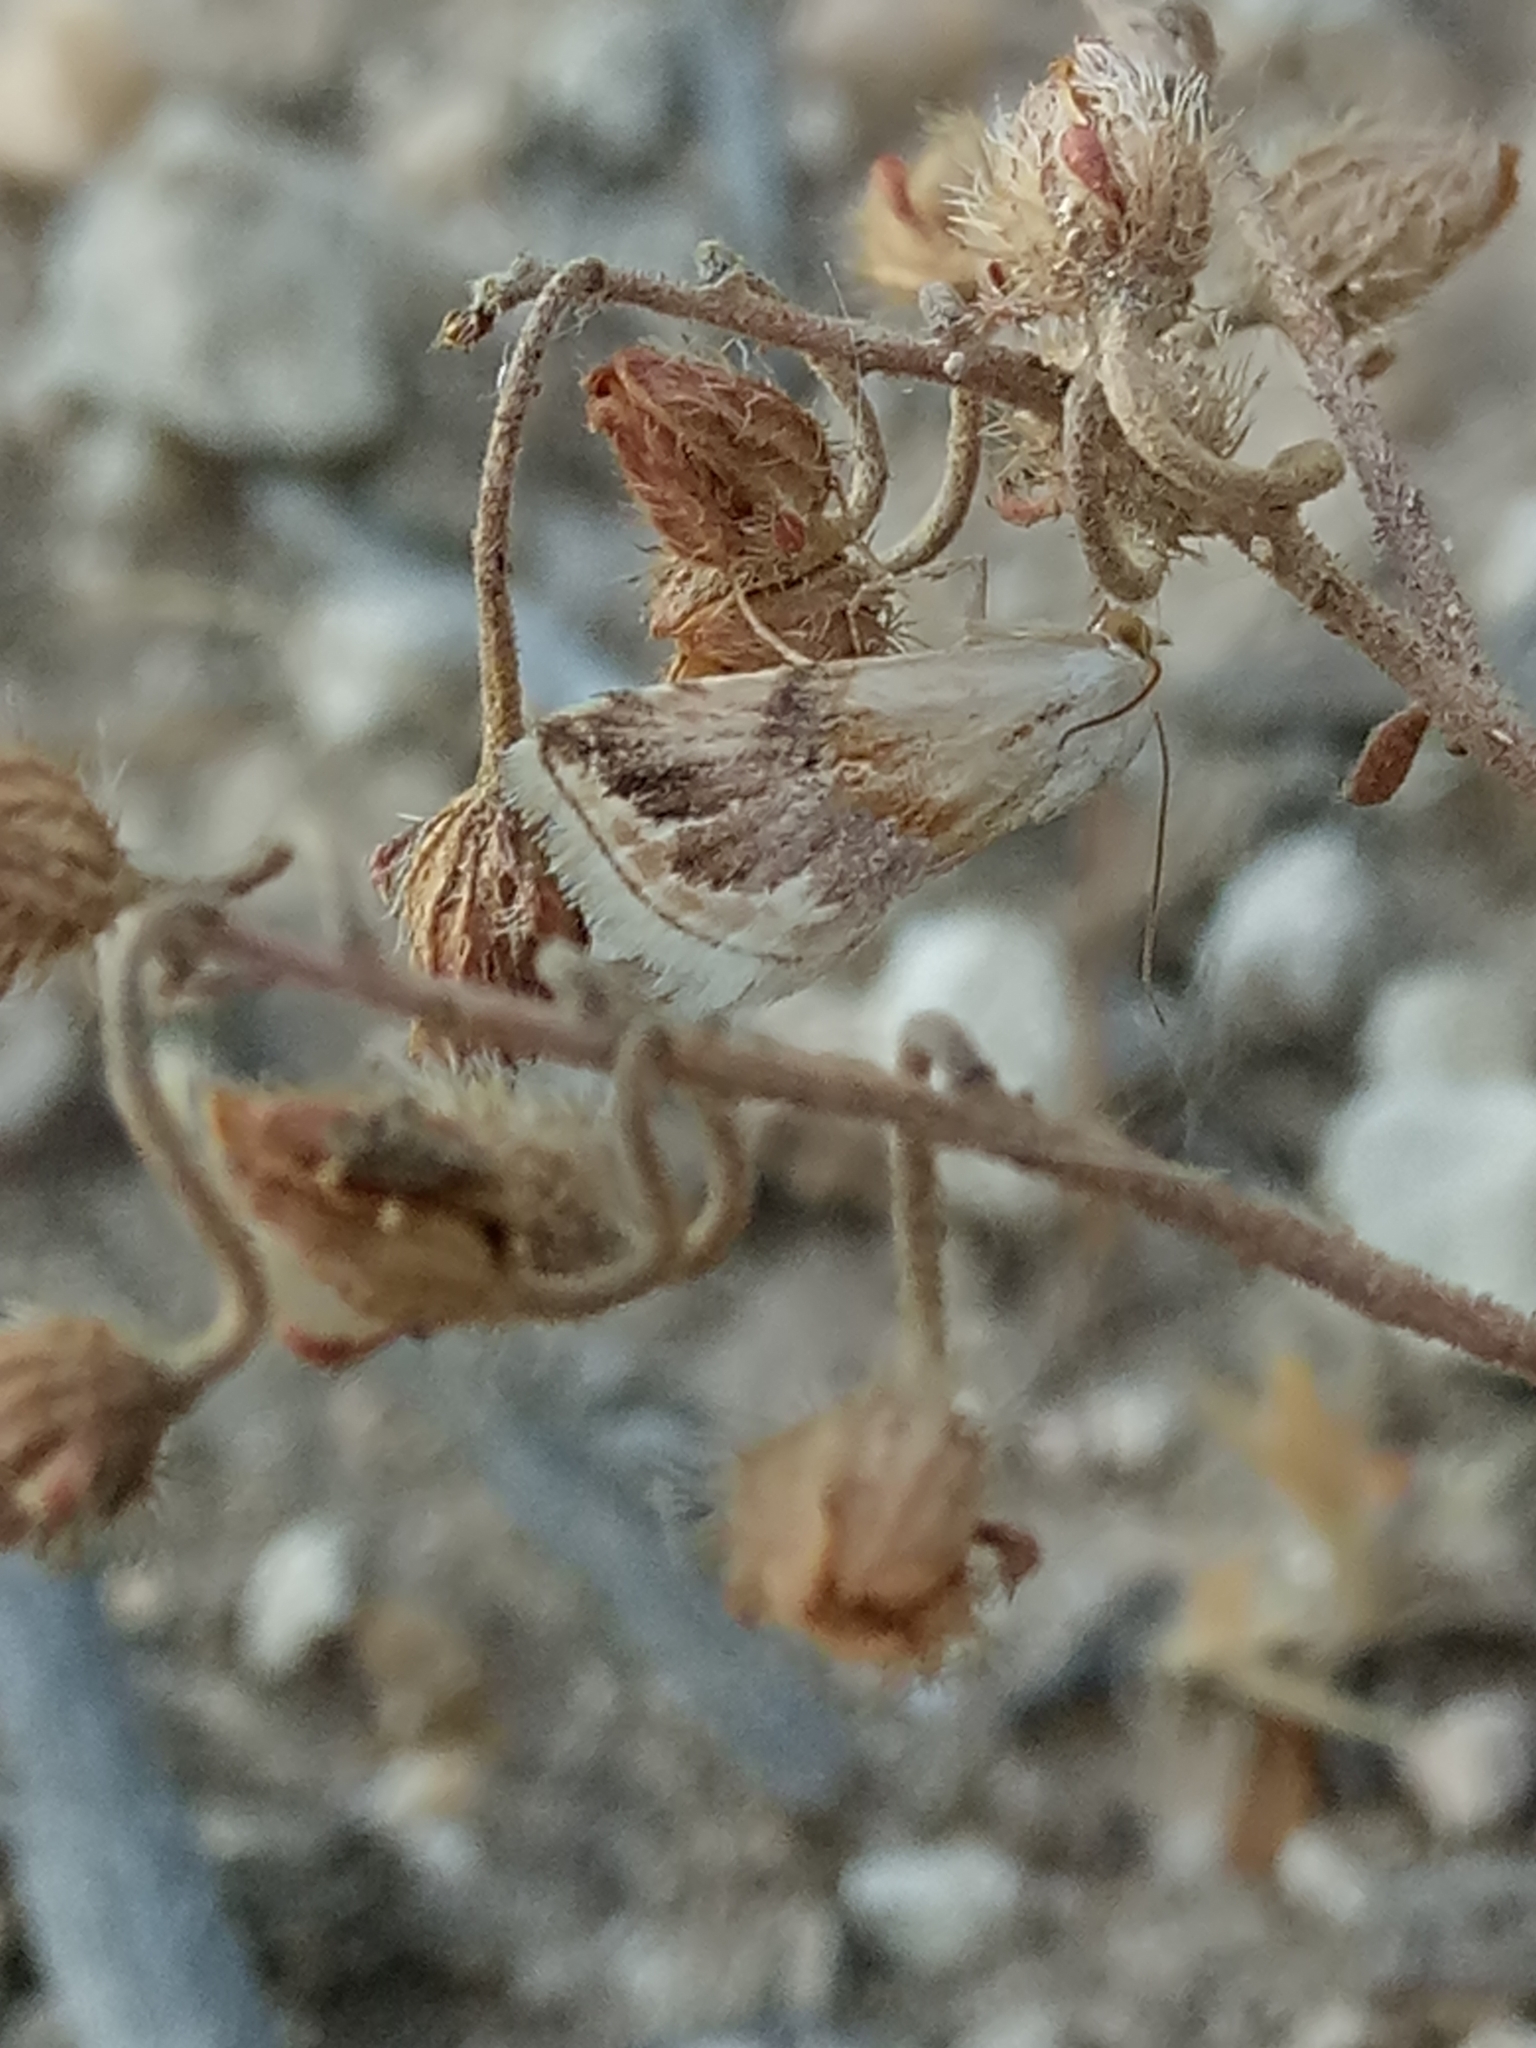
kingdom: Animalia
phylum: Arthropoda
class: Insecta
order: Lepidoptera
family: Noctuidae
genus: Eublemma
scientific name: Eublemma ostrina
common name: Purple marbled
